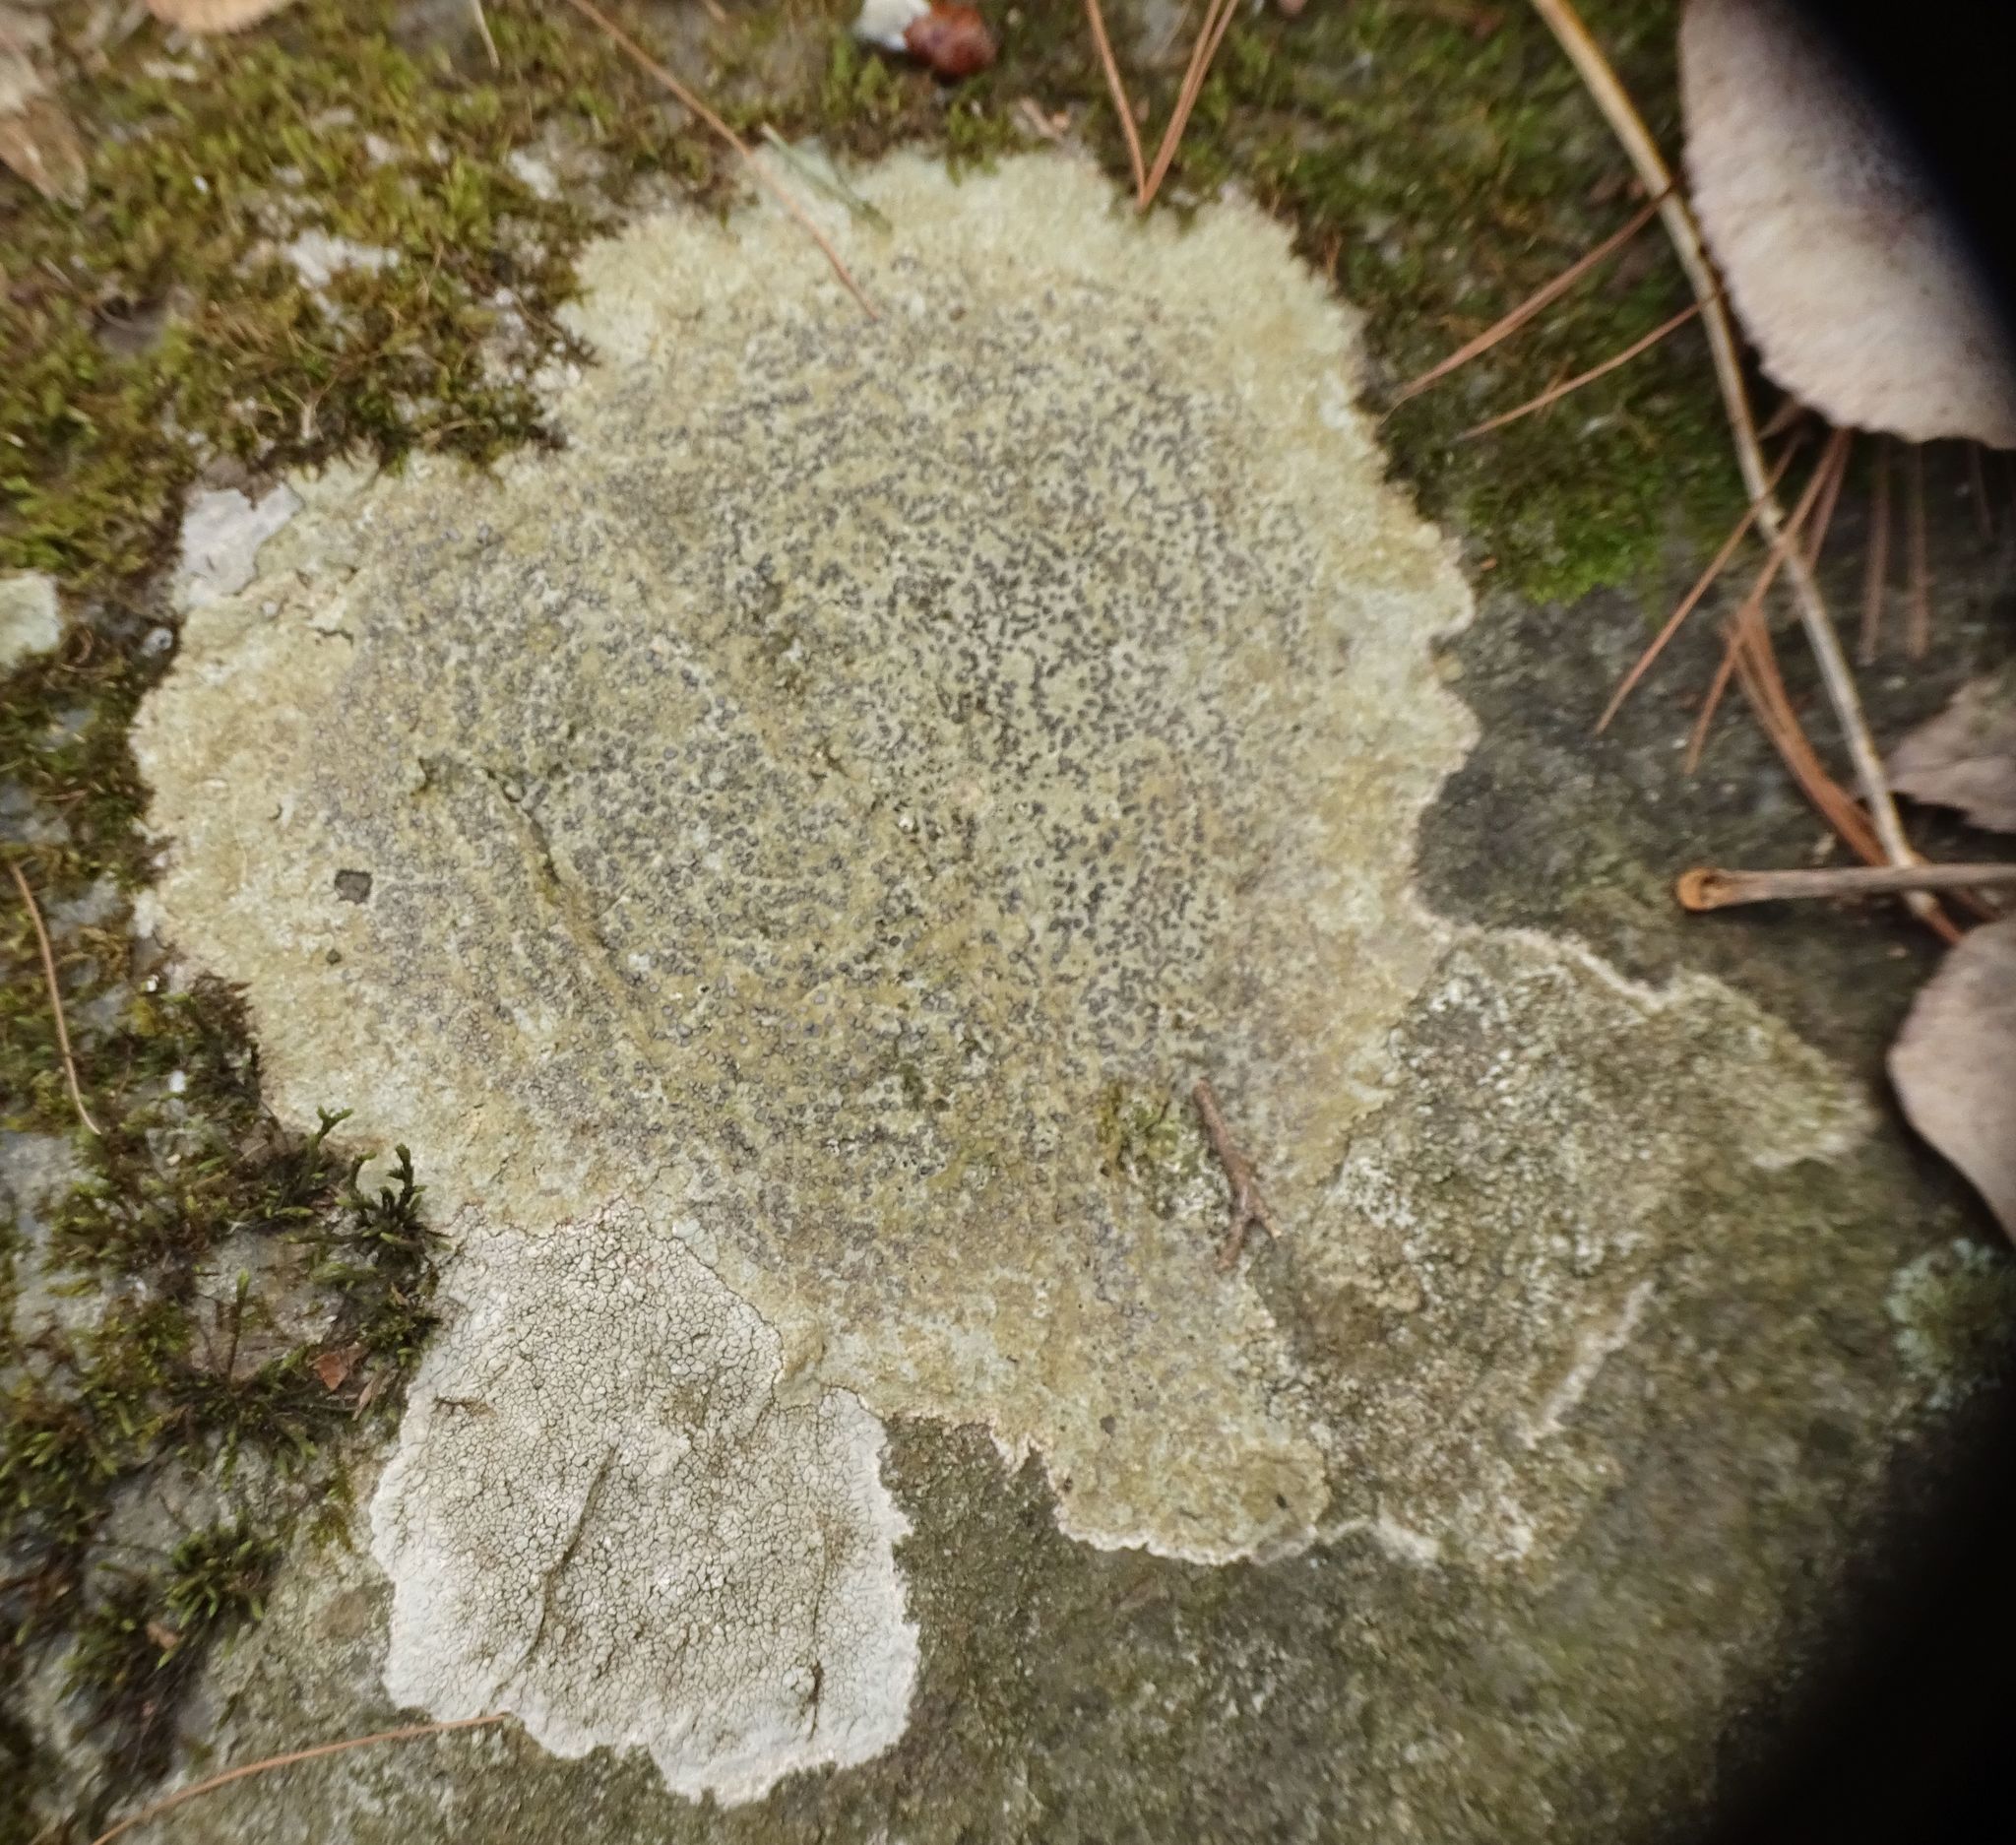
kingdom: Fungi
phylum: Ascomycota
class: Lecanoromycetes
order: Lecideales
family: Lecideaceae
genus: Porpidia
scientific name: Porpidia albocaerulescens
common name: Smokey-eyed boulder lichen
